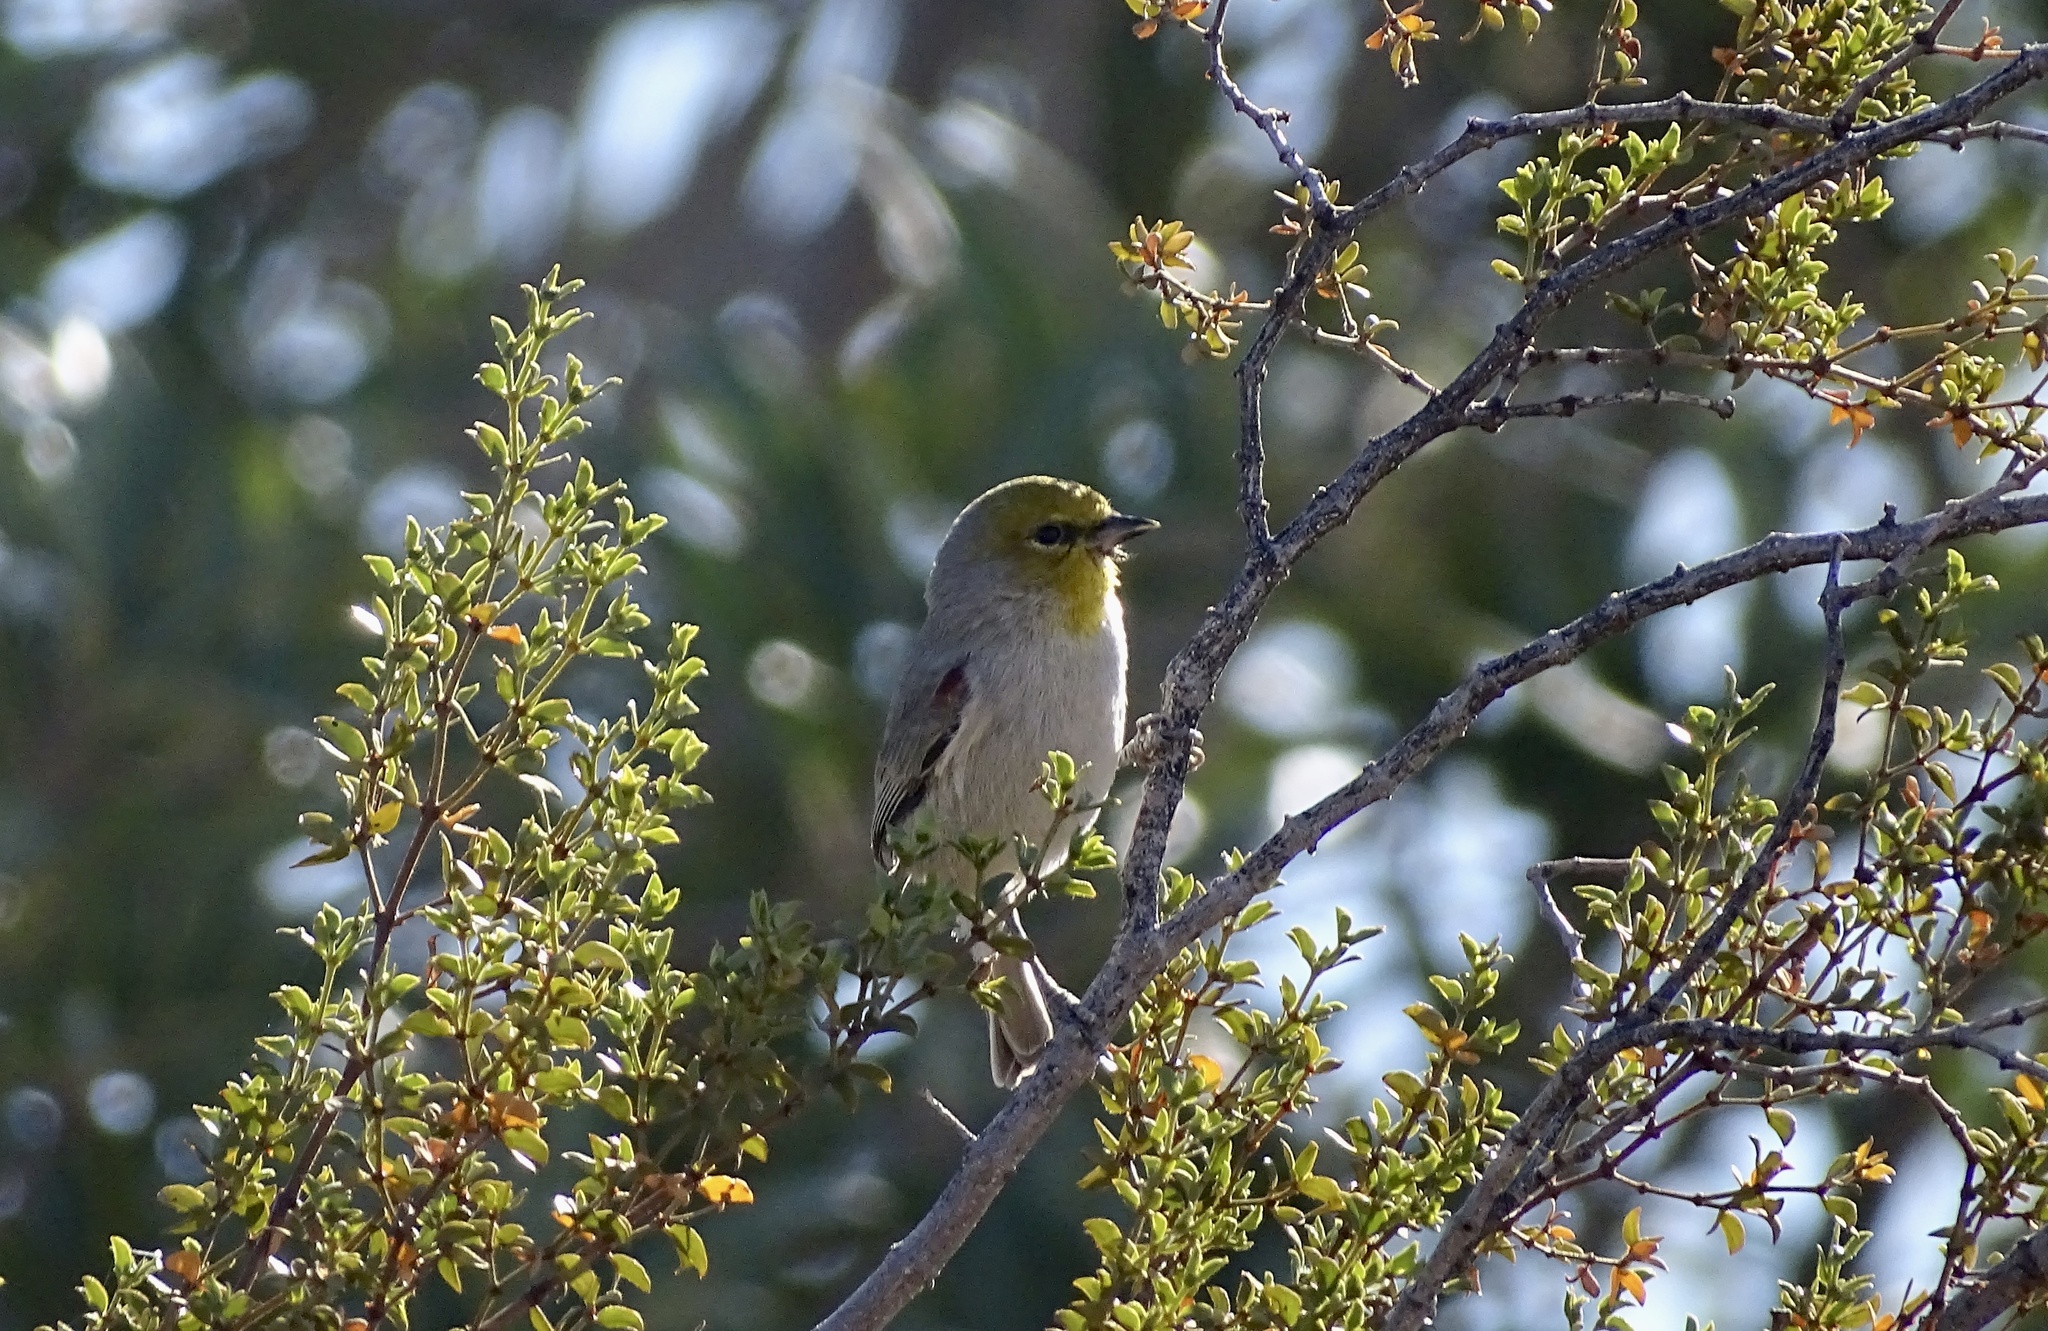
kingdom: Animalia
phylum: Chordata
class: Aves
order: Passeriformes
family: Remizidae
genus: Auriparus
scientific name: Auriparus flaviceps
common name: Verdin
